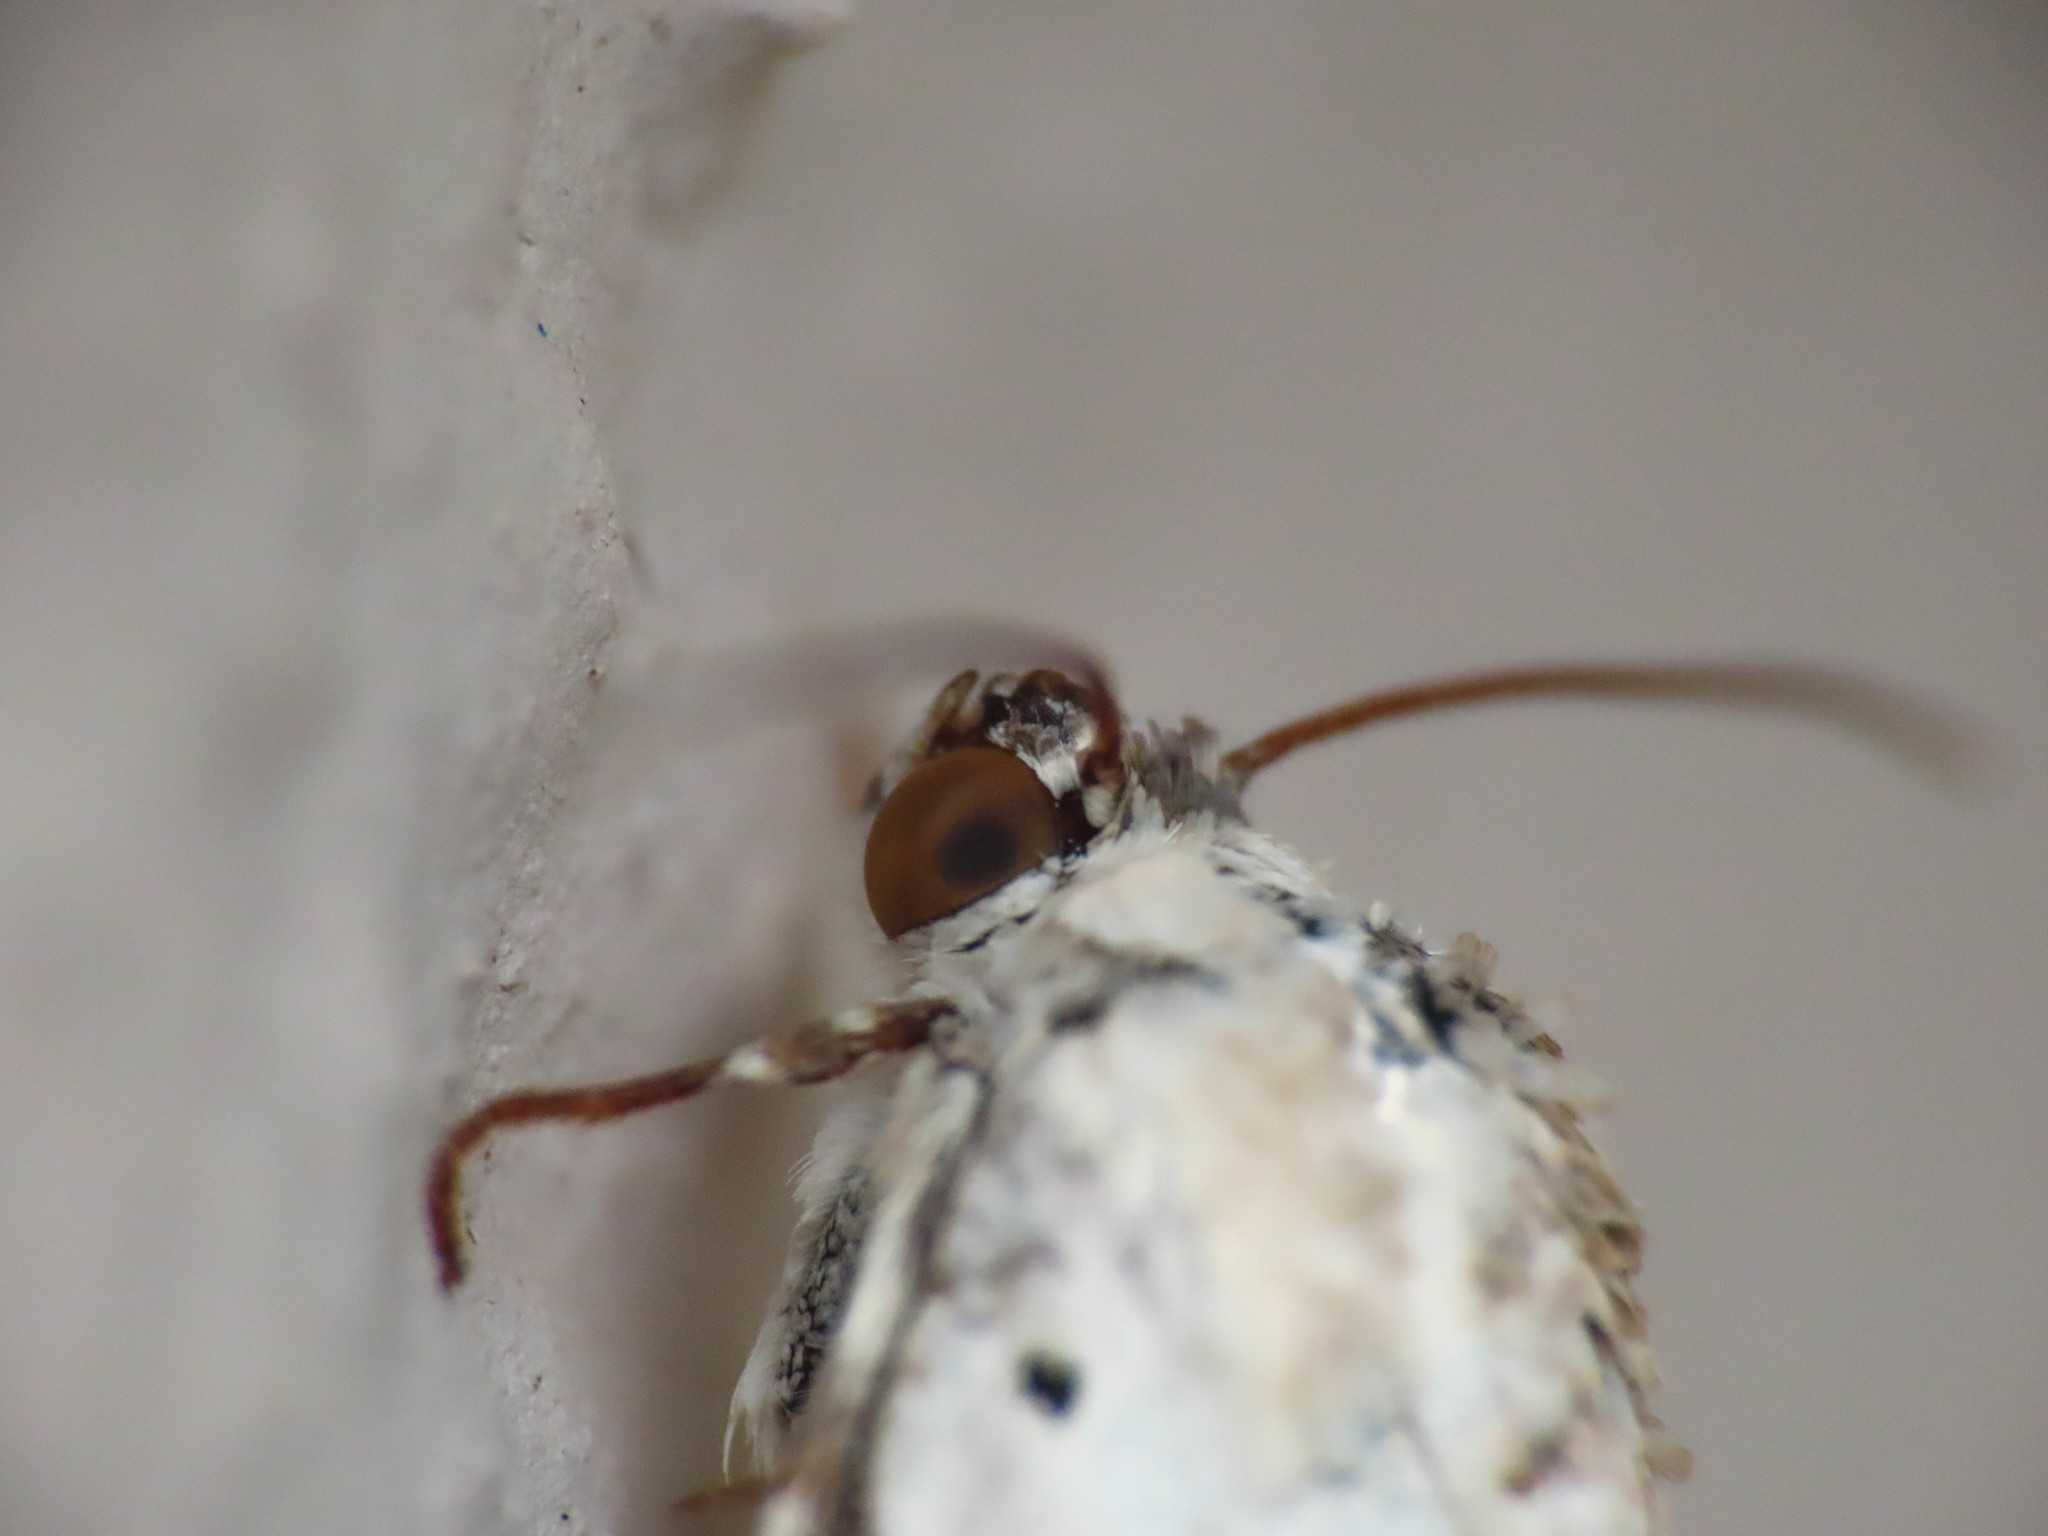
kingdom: Animalia
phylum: Arthropoda
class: Insecta
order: Lepidoptera
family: Noctuidae
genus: Acontia
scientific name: Acontia lucida
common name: Pale shoulder
